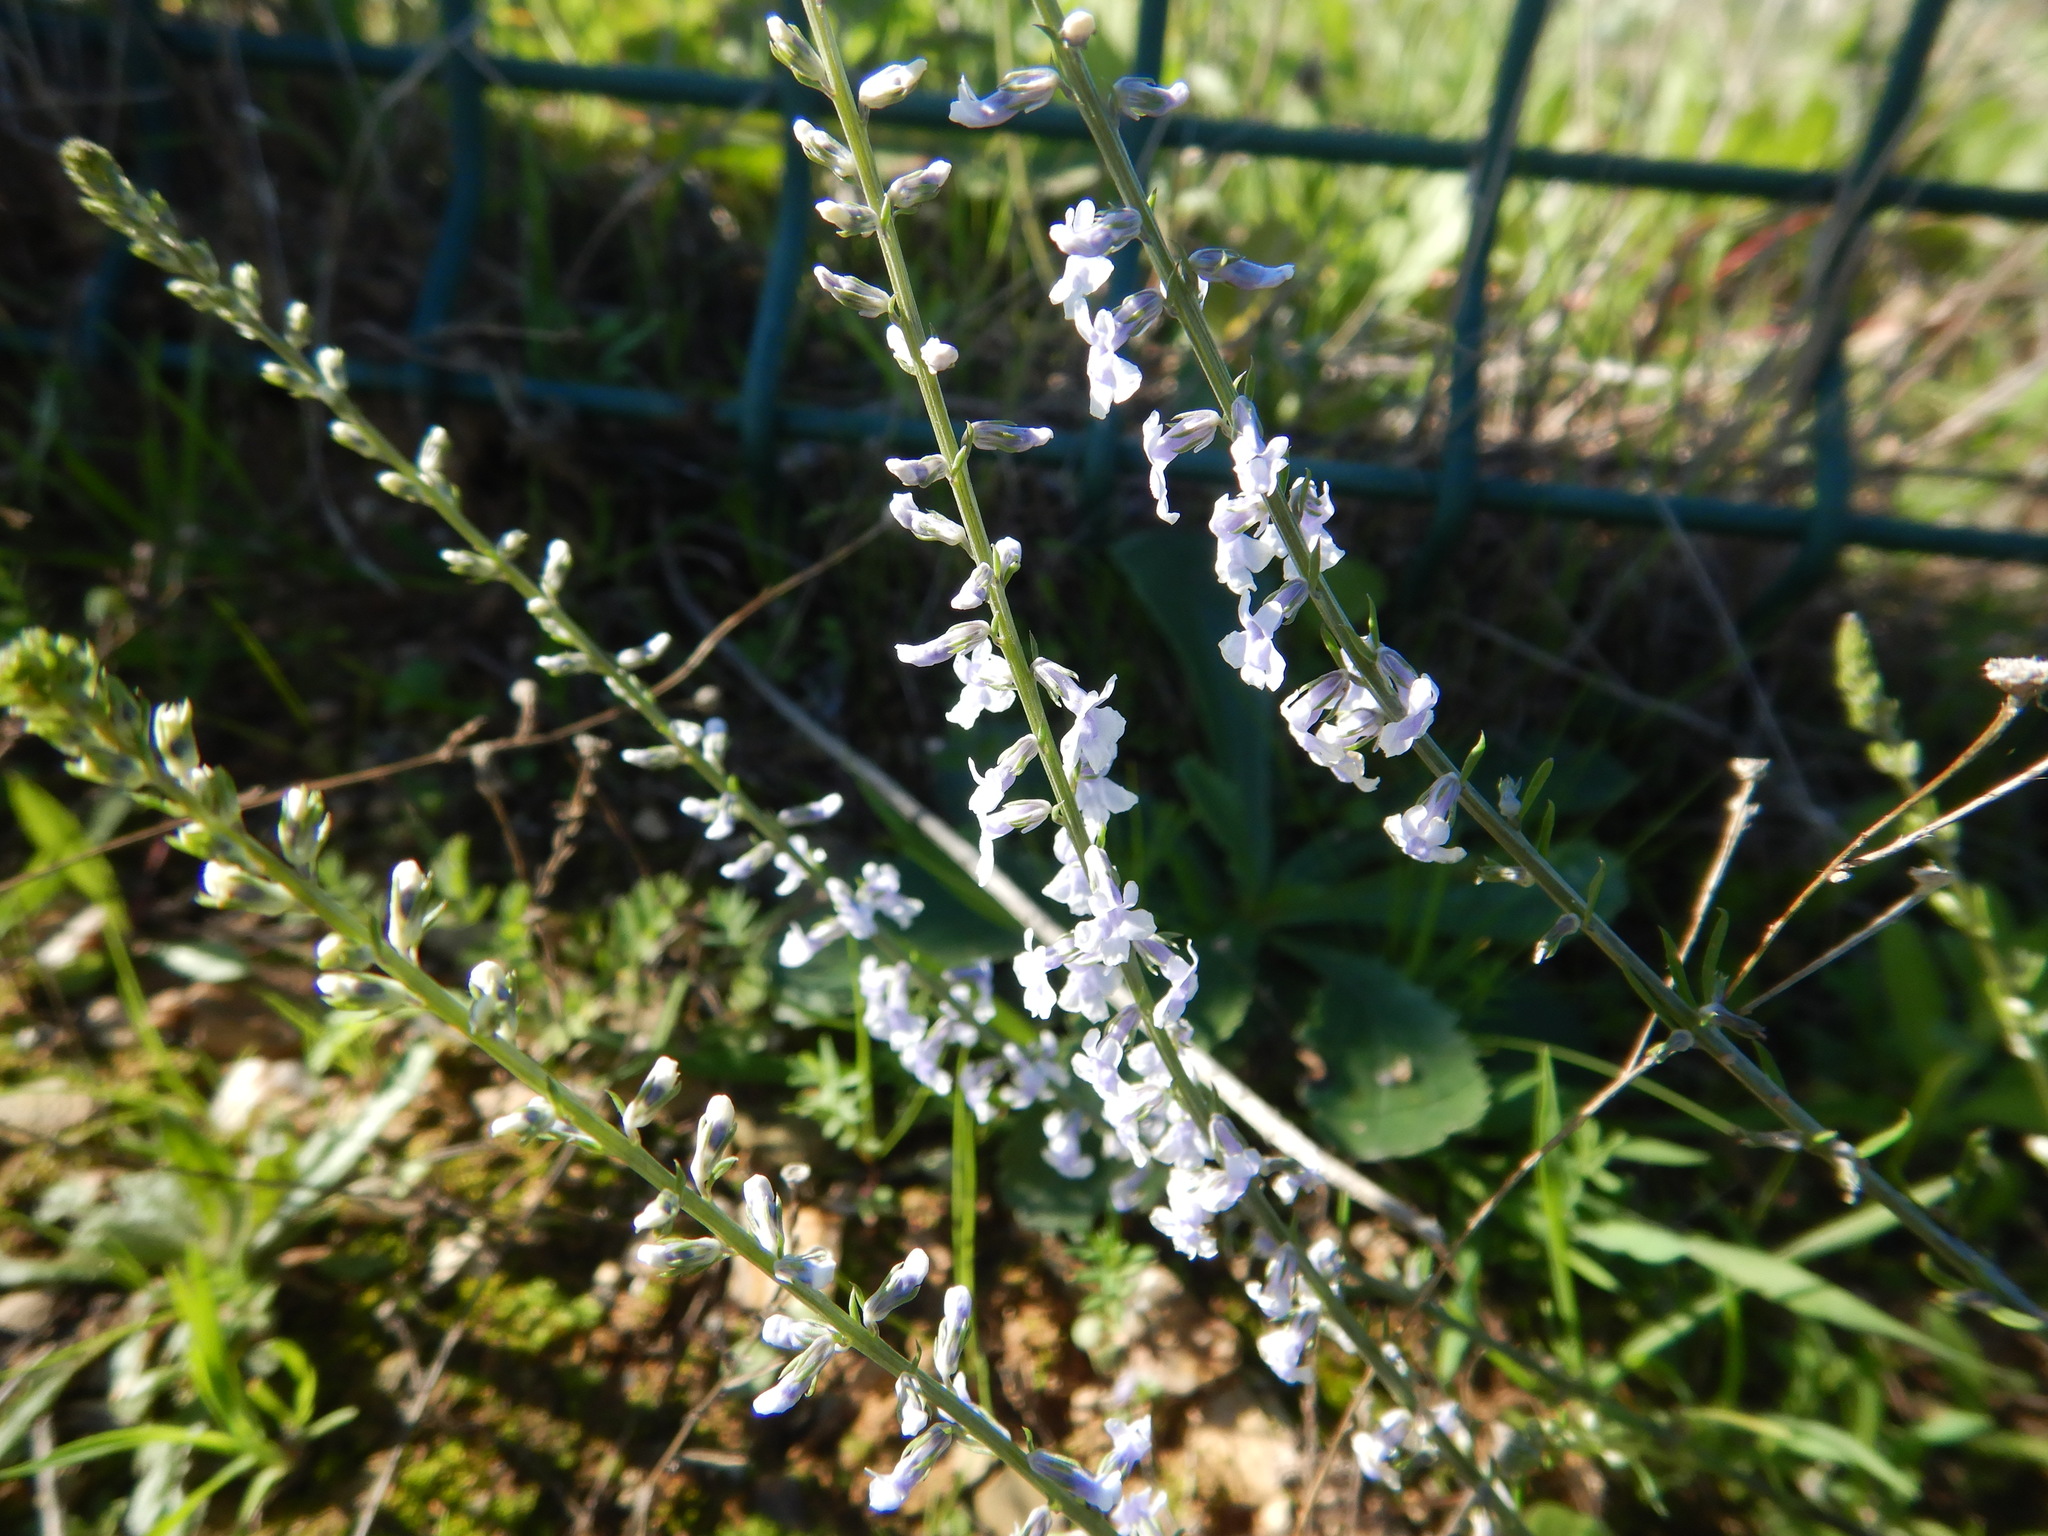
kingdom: Plantae
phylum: Tracheophyta
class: Magnoliopsida
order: Lamiales
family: Plantaginaceae
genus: Anarrhinum
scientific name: Anarrhinum bellidifolium
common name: Daisy-leaved toadflax
